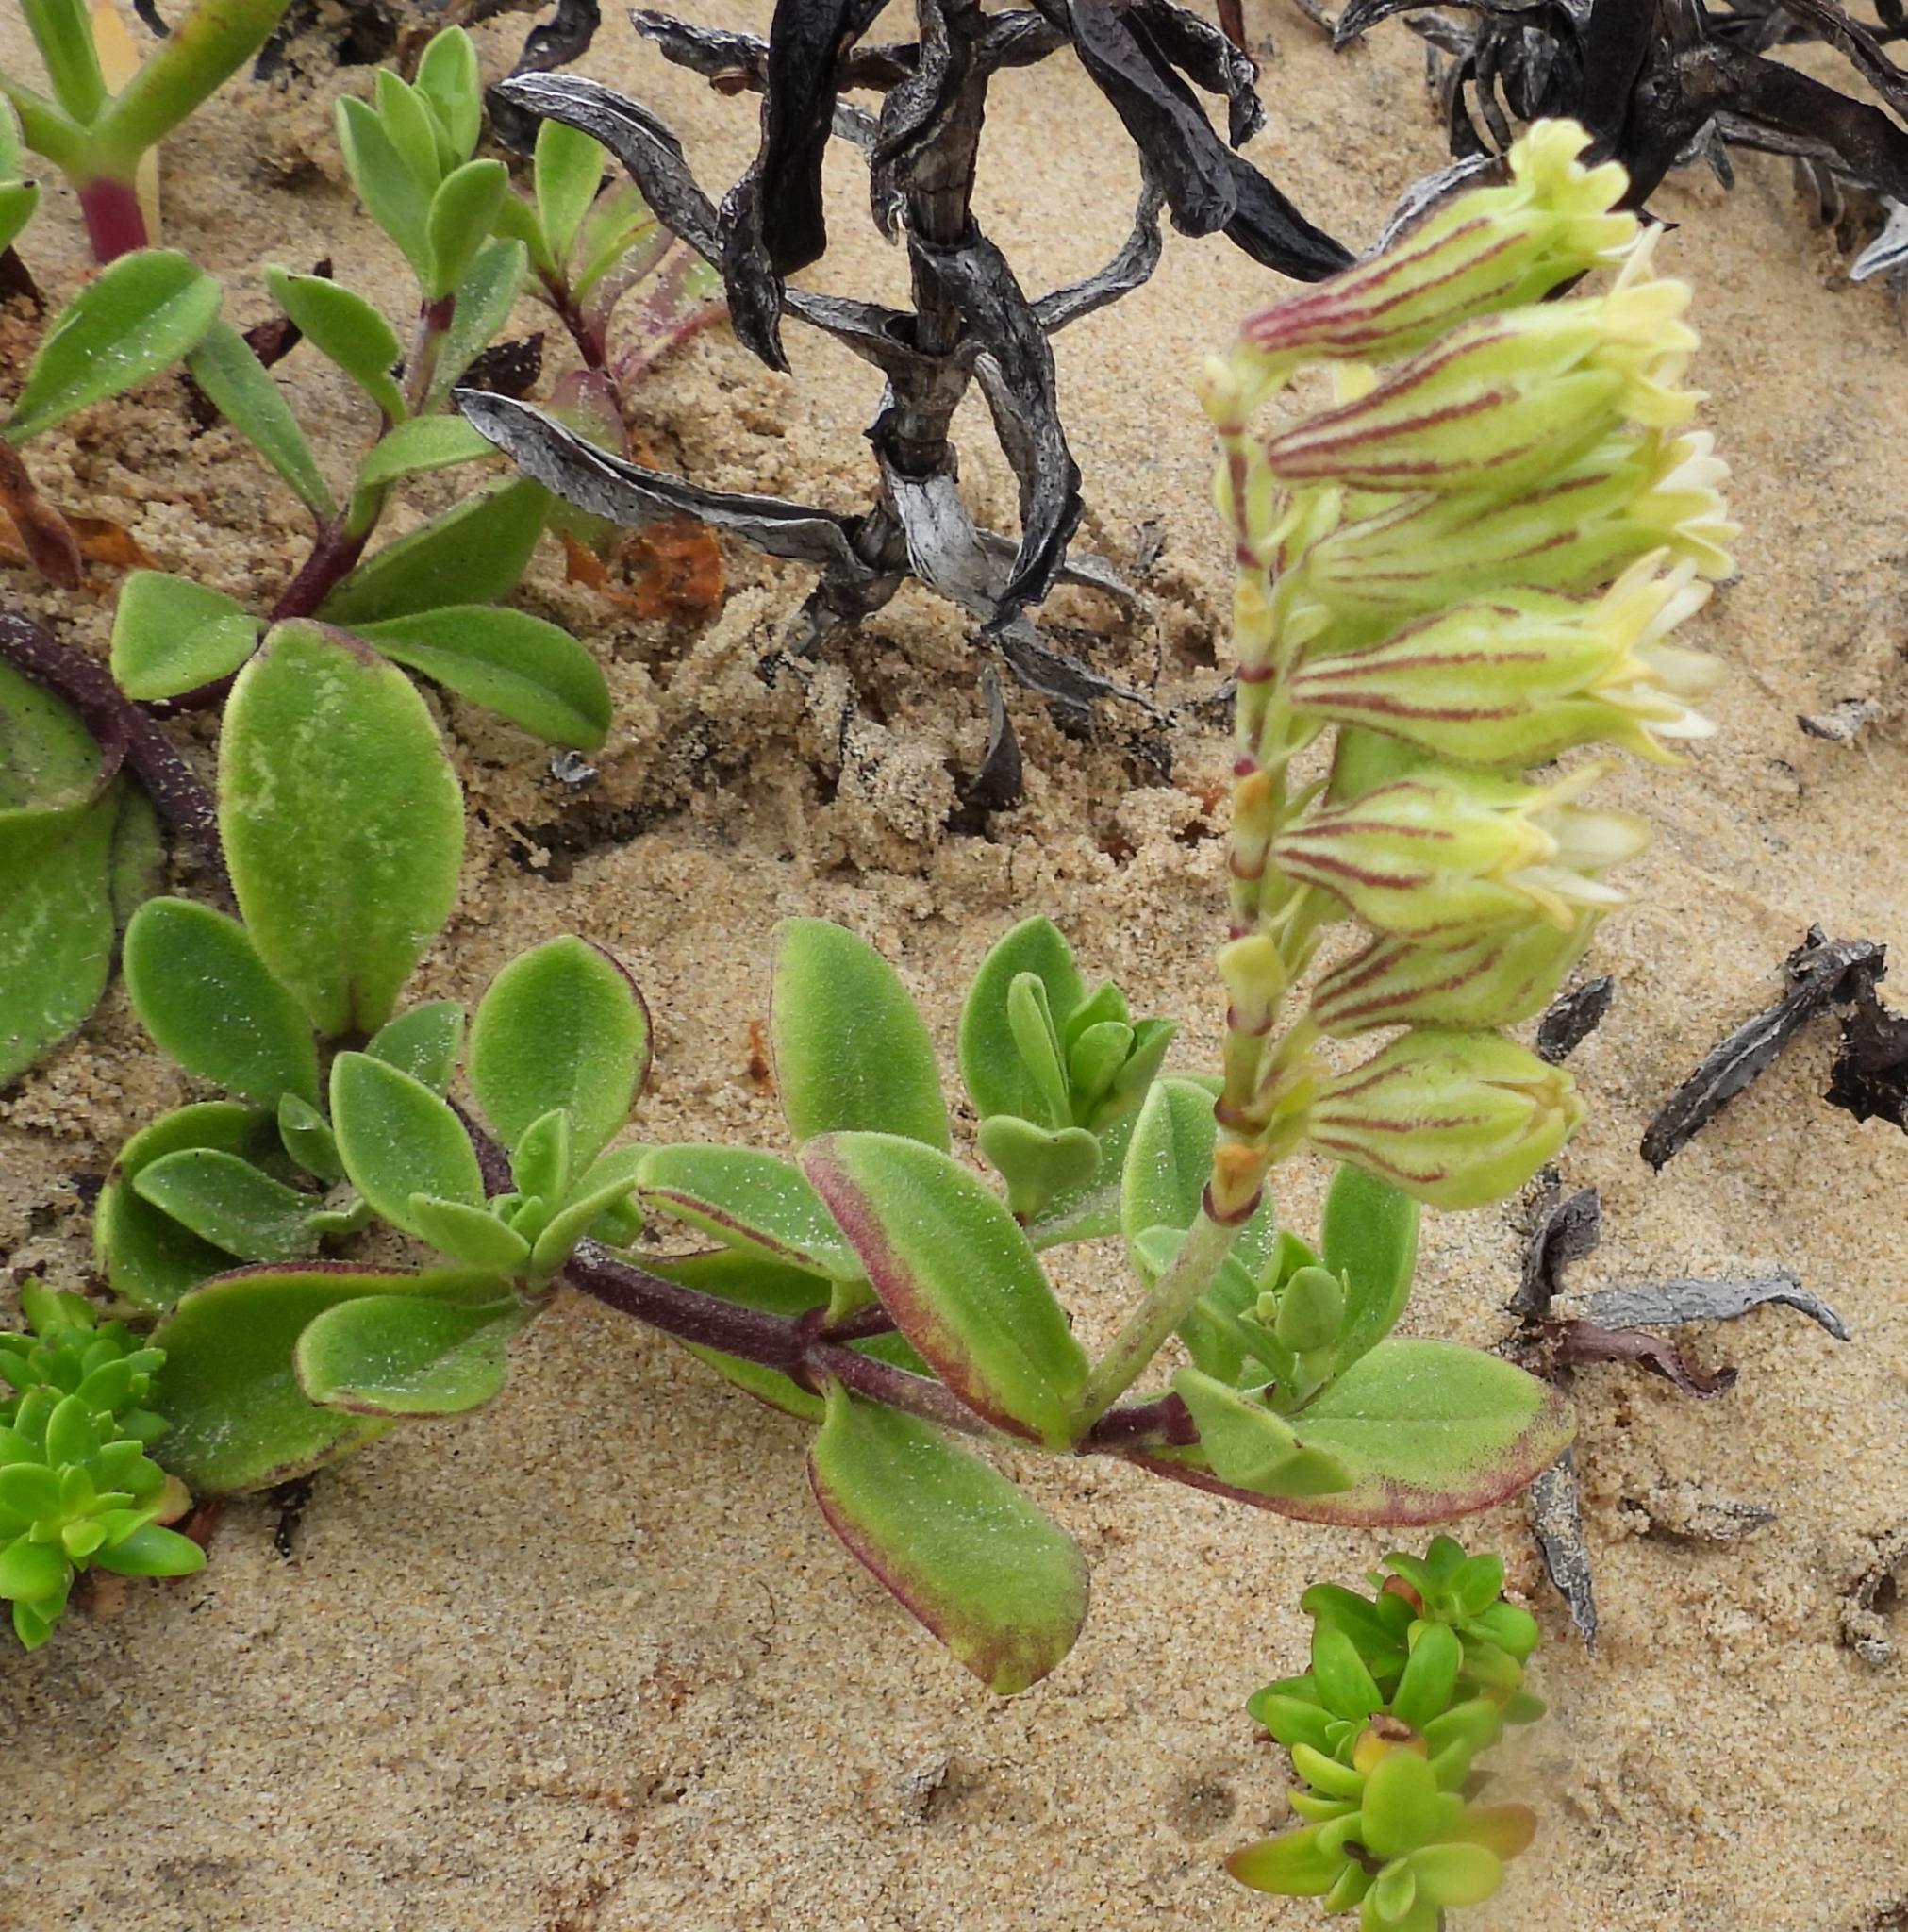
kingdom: Plantae
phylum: Tracheophyta
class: Magnoliopsida
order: Caryophyllales
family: Caryophyllaceae
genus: Silene
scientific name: Silene crassifolia
